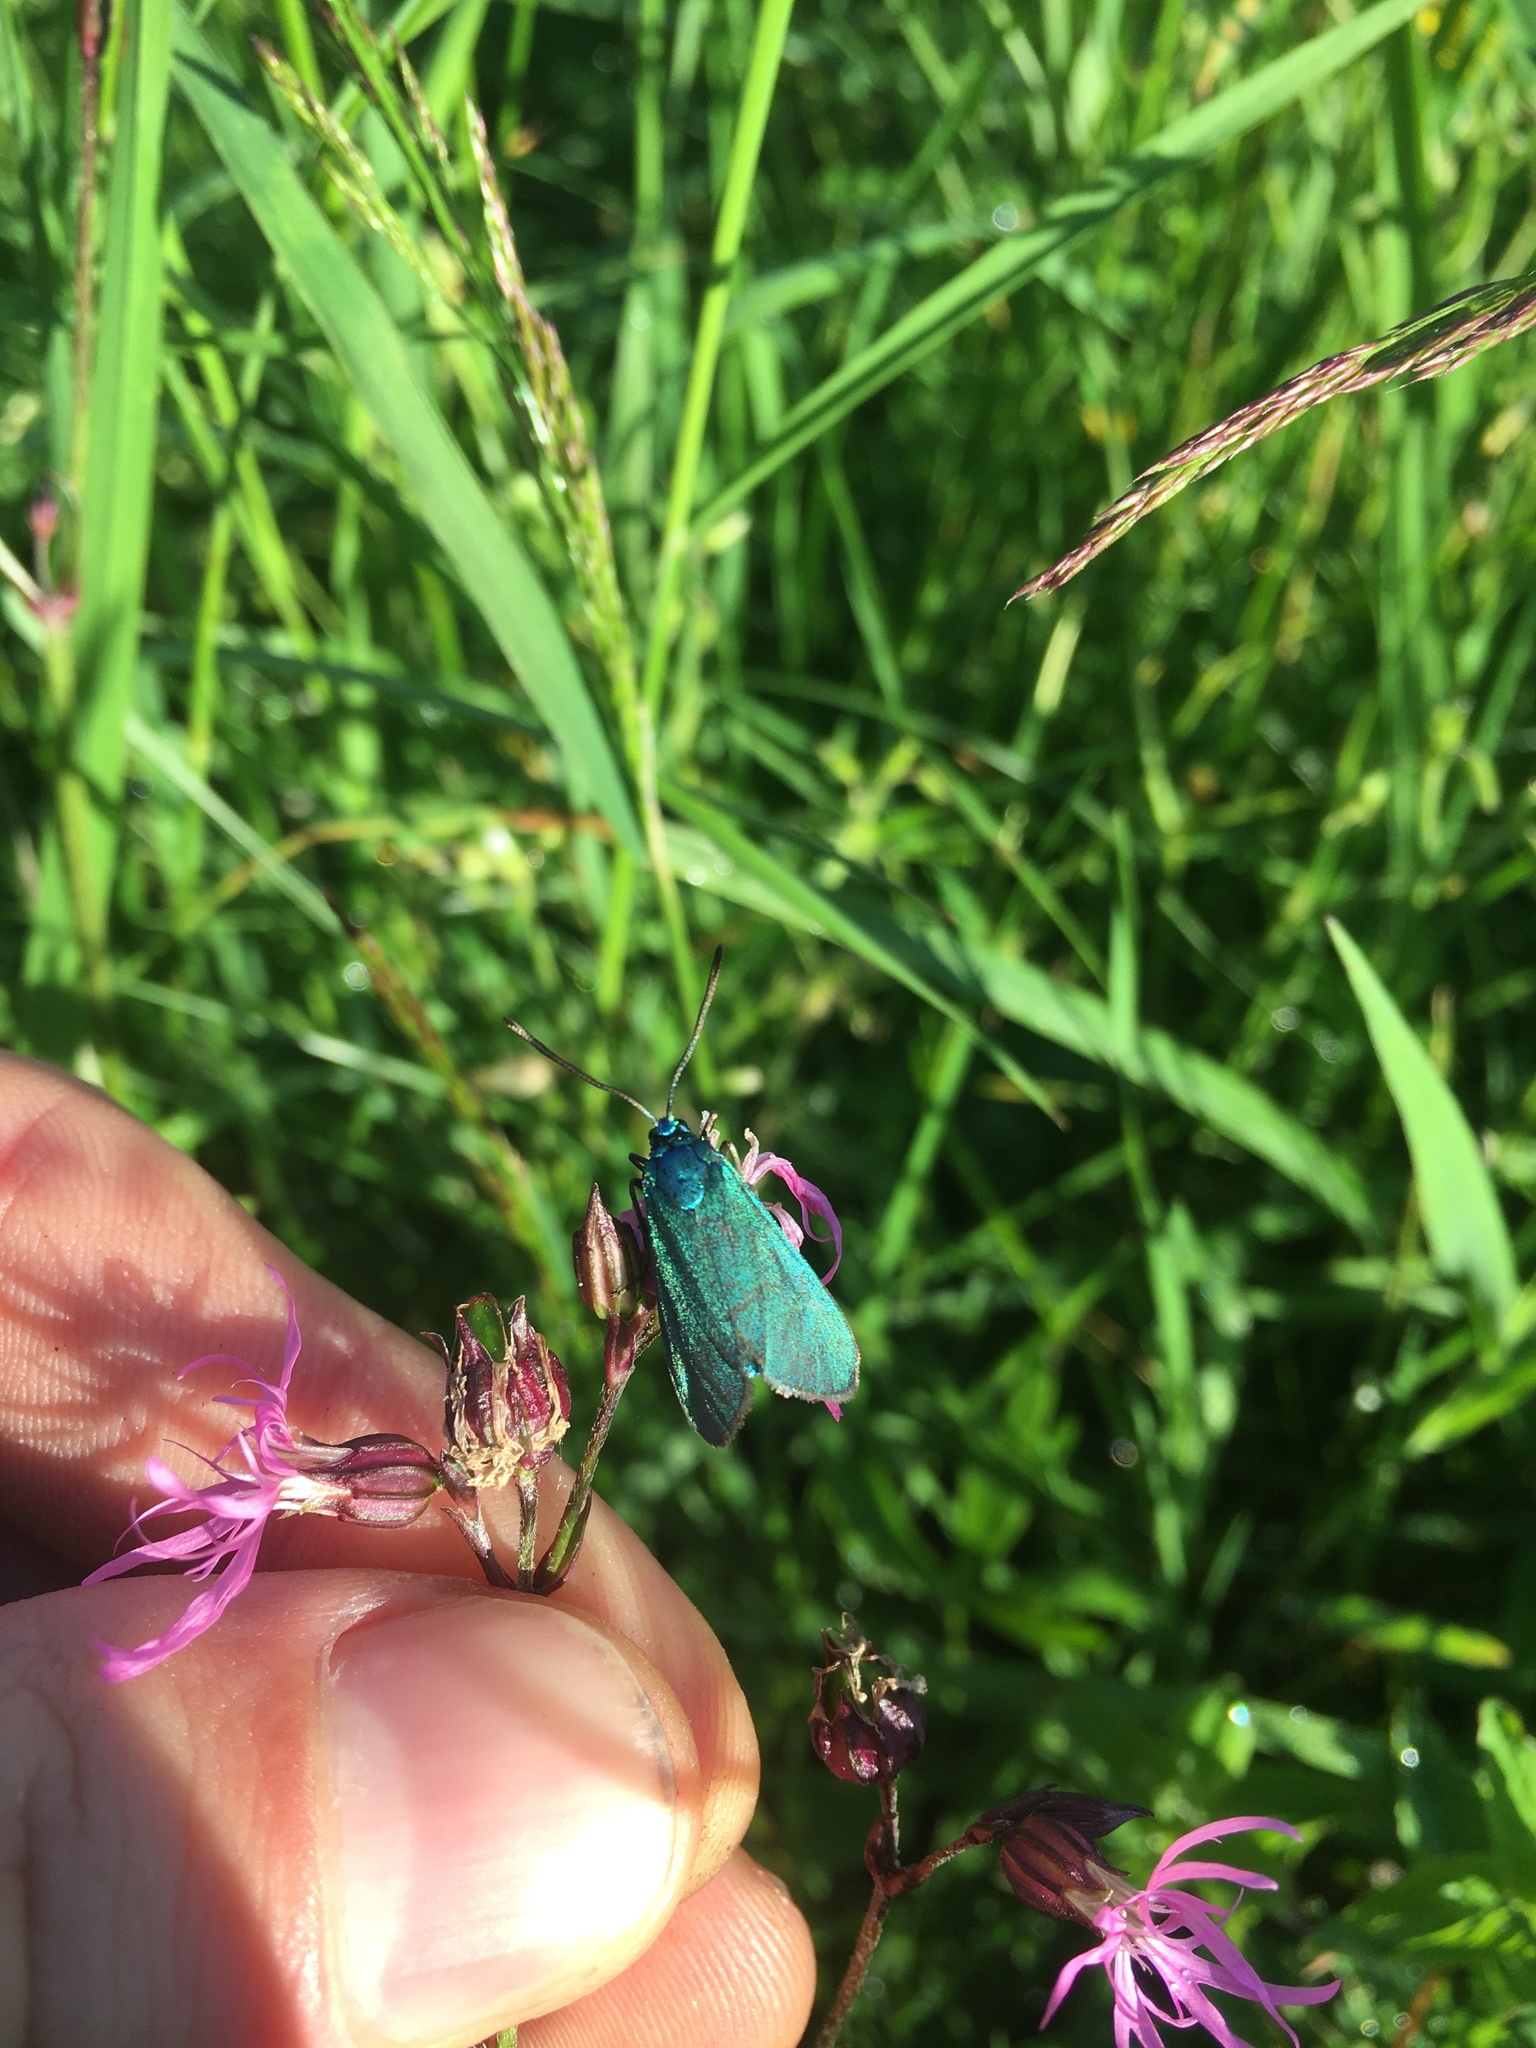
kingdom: Animalia
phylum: Arthropoda
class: Insecta
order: Lepidoptera
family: Zygaenidae
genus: Adscita
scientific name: Adscita statices
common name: Forester
